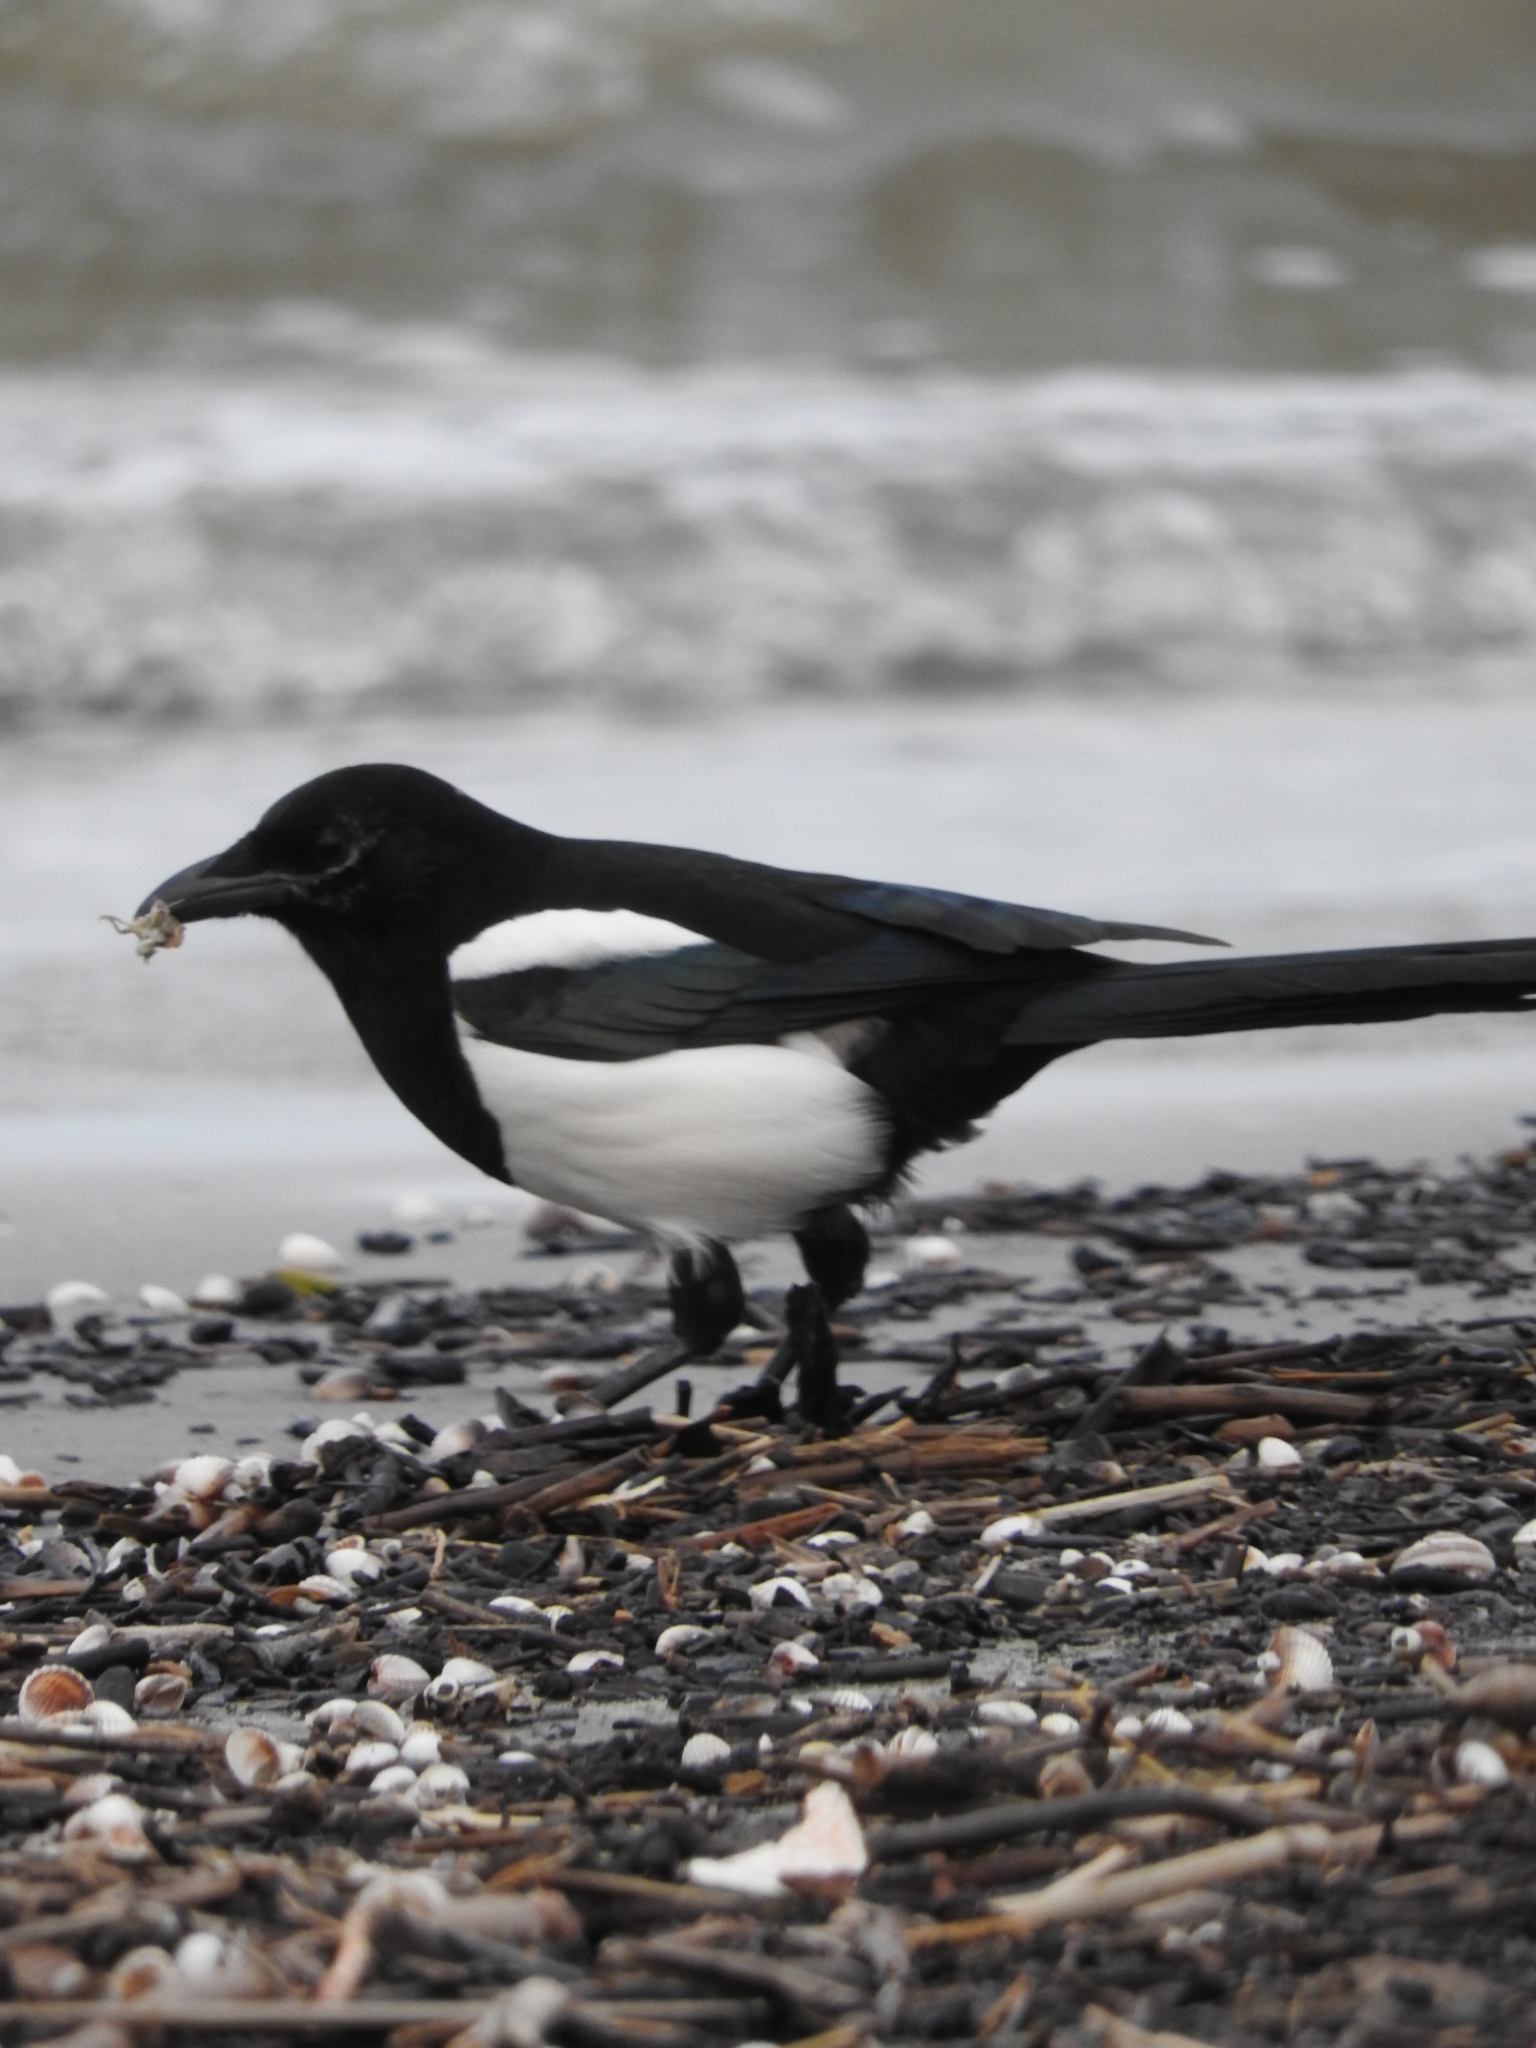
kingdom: Animalia
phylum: Chordata
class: Aves
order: Passeriformes
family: Corvidae
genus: Pica
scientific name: Pica pica
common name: Eurasian magpie
